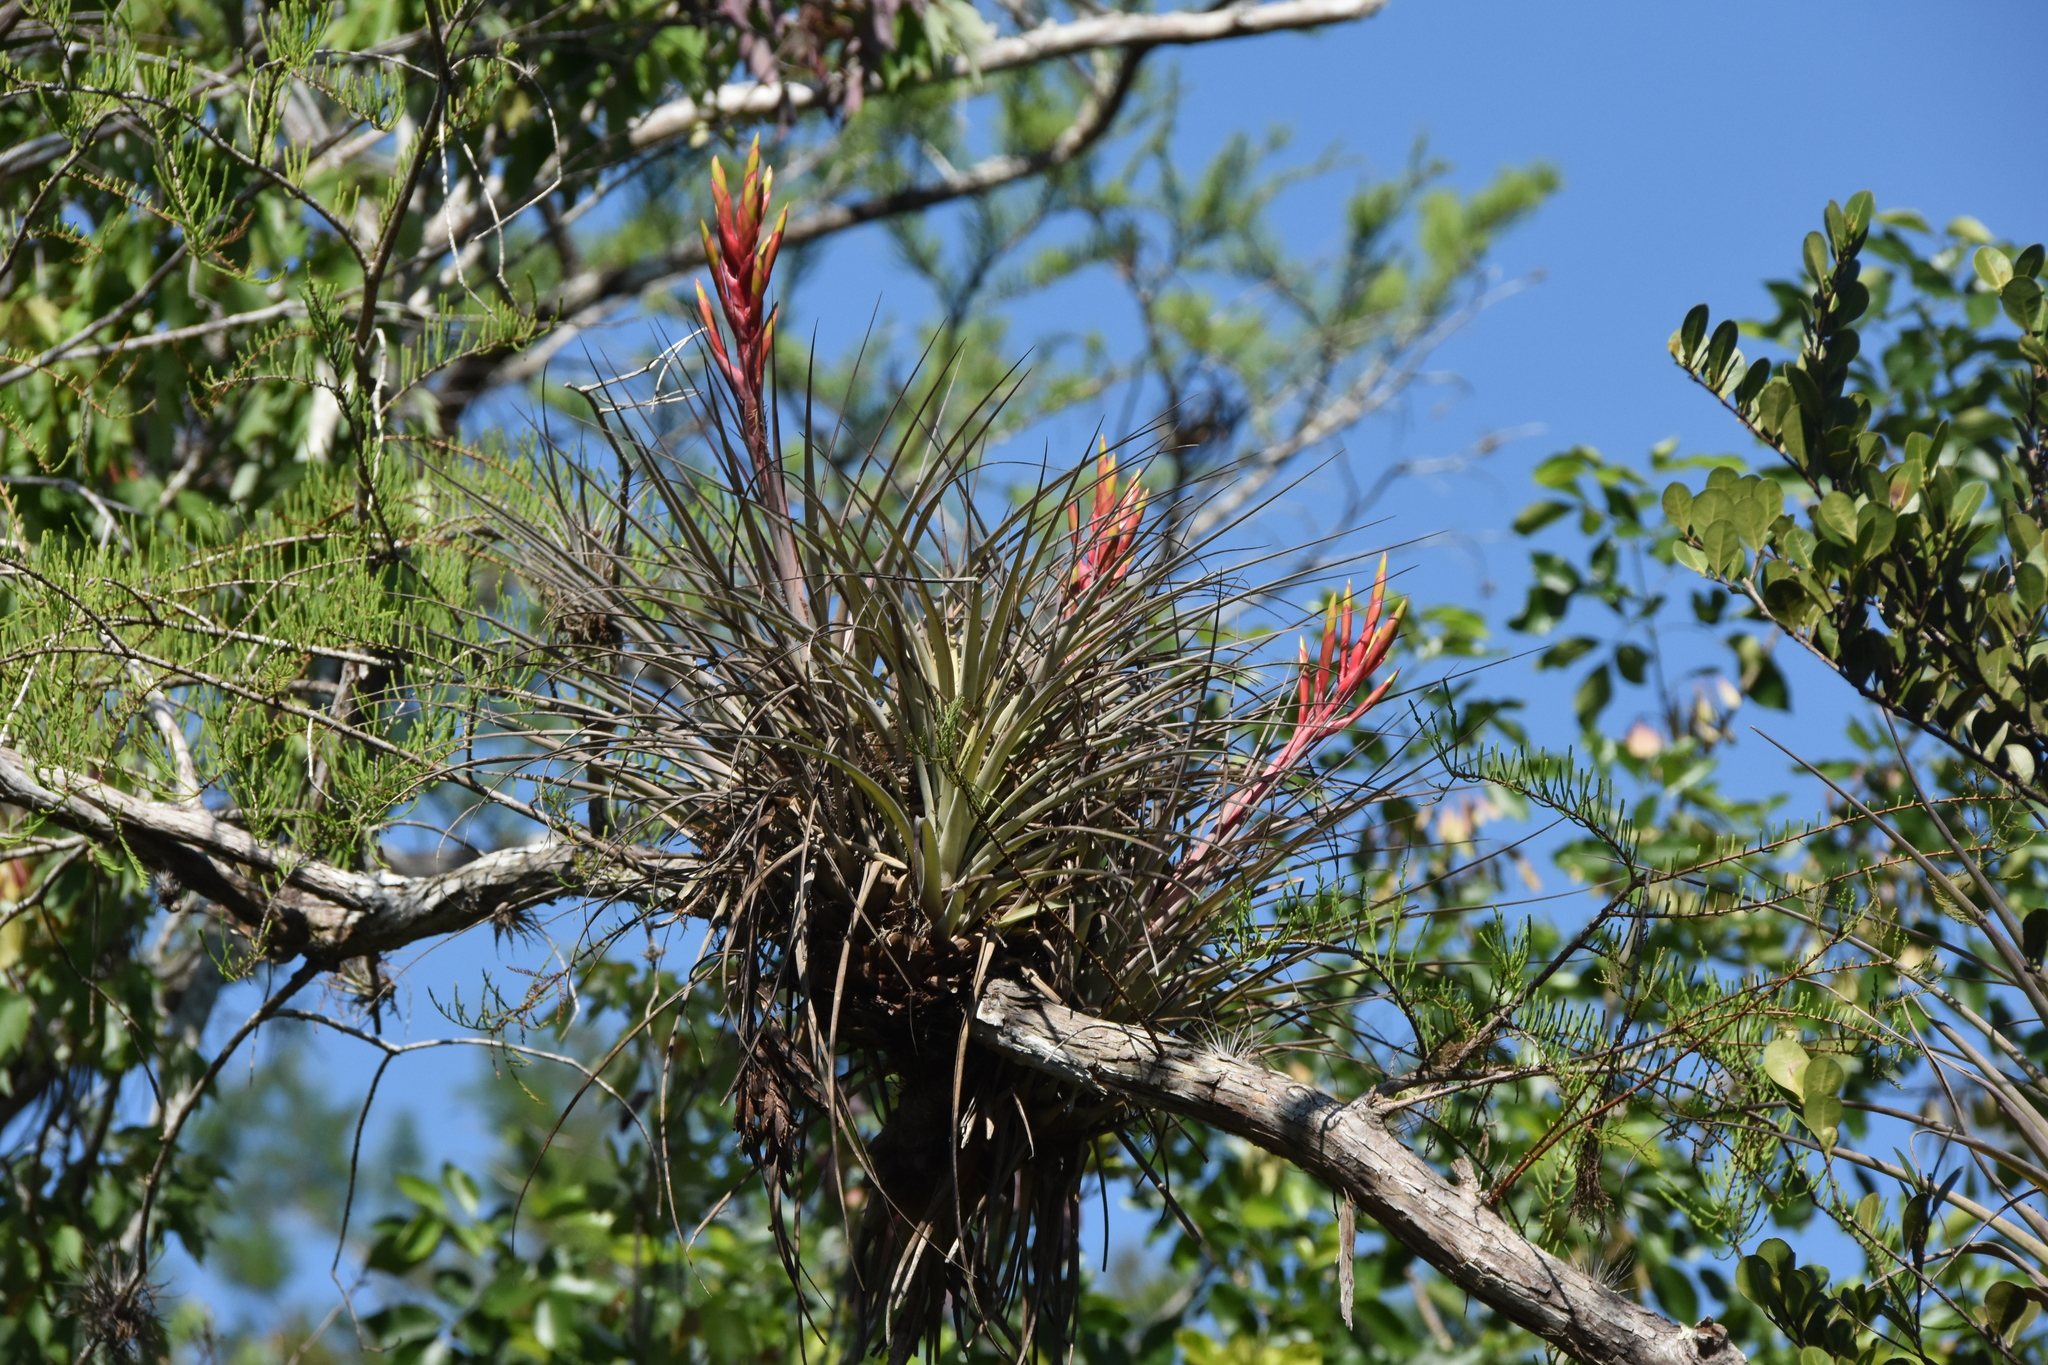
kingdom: Plantae
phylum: Tracheophyta
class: Liliopsida
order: Poales
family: Bromeliaceae
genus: Tillandsia
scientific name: Tillandsia fasciculata
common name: Giant airplant
